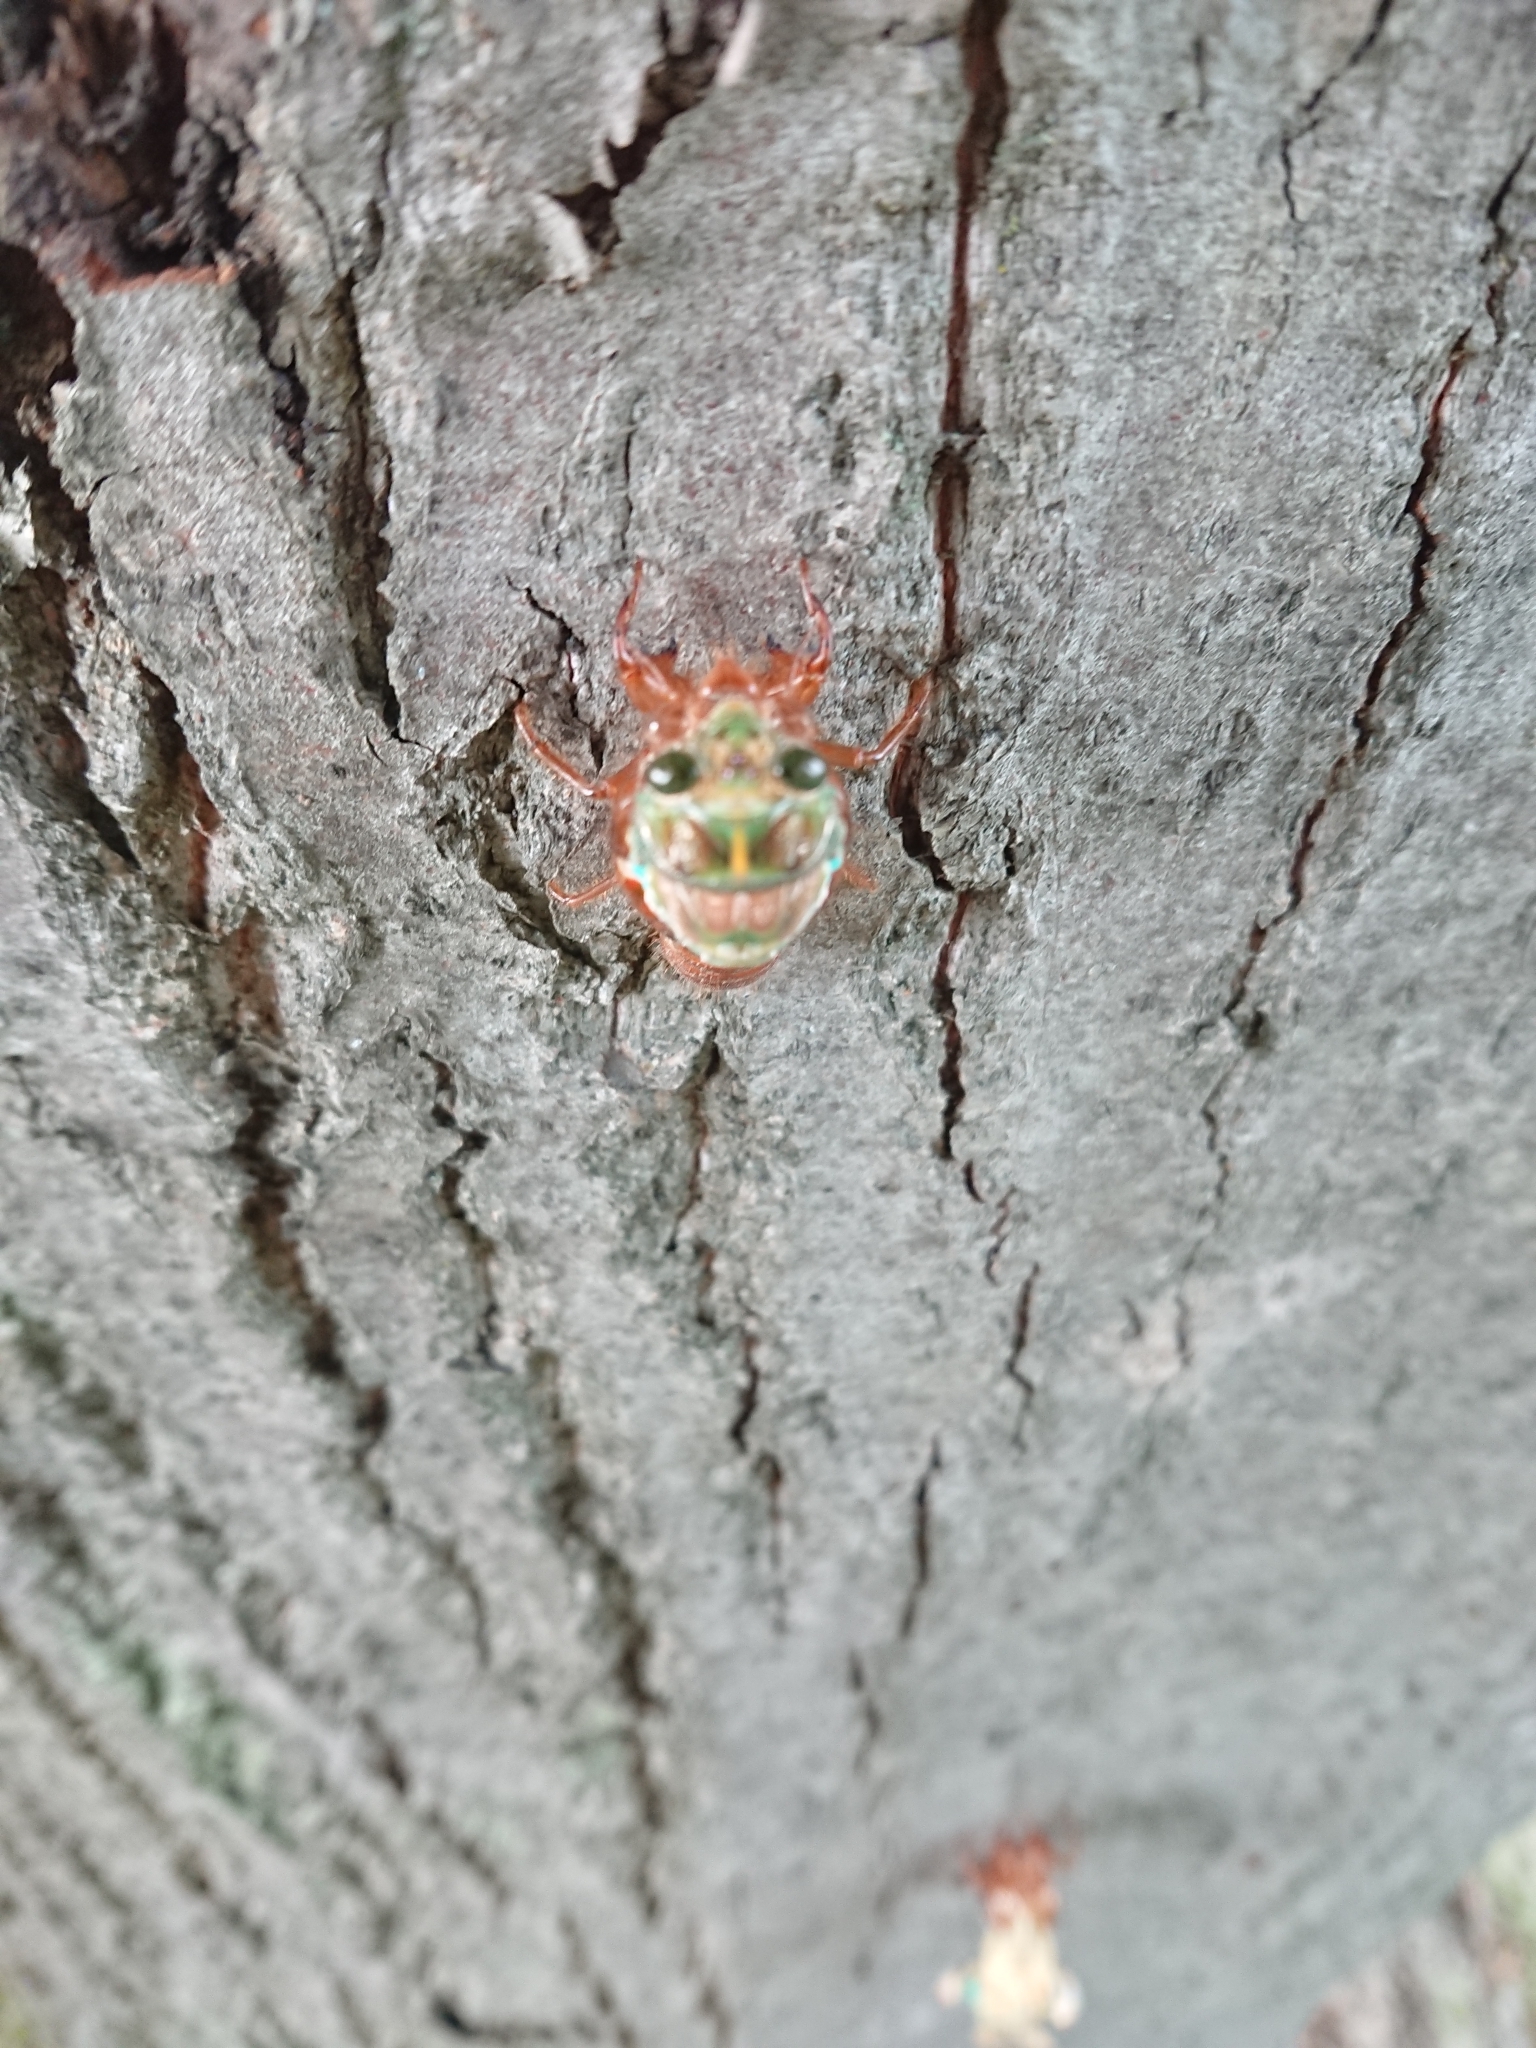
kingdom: Animalia
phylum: Arthropoda
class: Insecta
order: Hemiptera
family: Cicadidae
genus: Amphipsalta
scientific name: Amphipsalta zelandica
